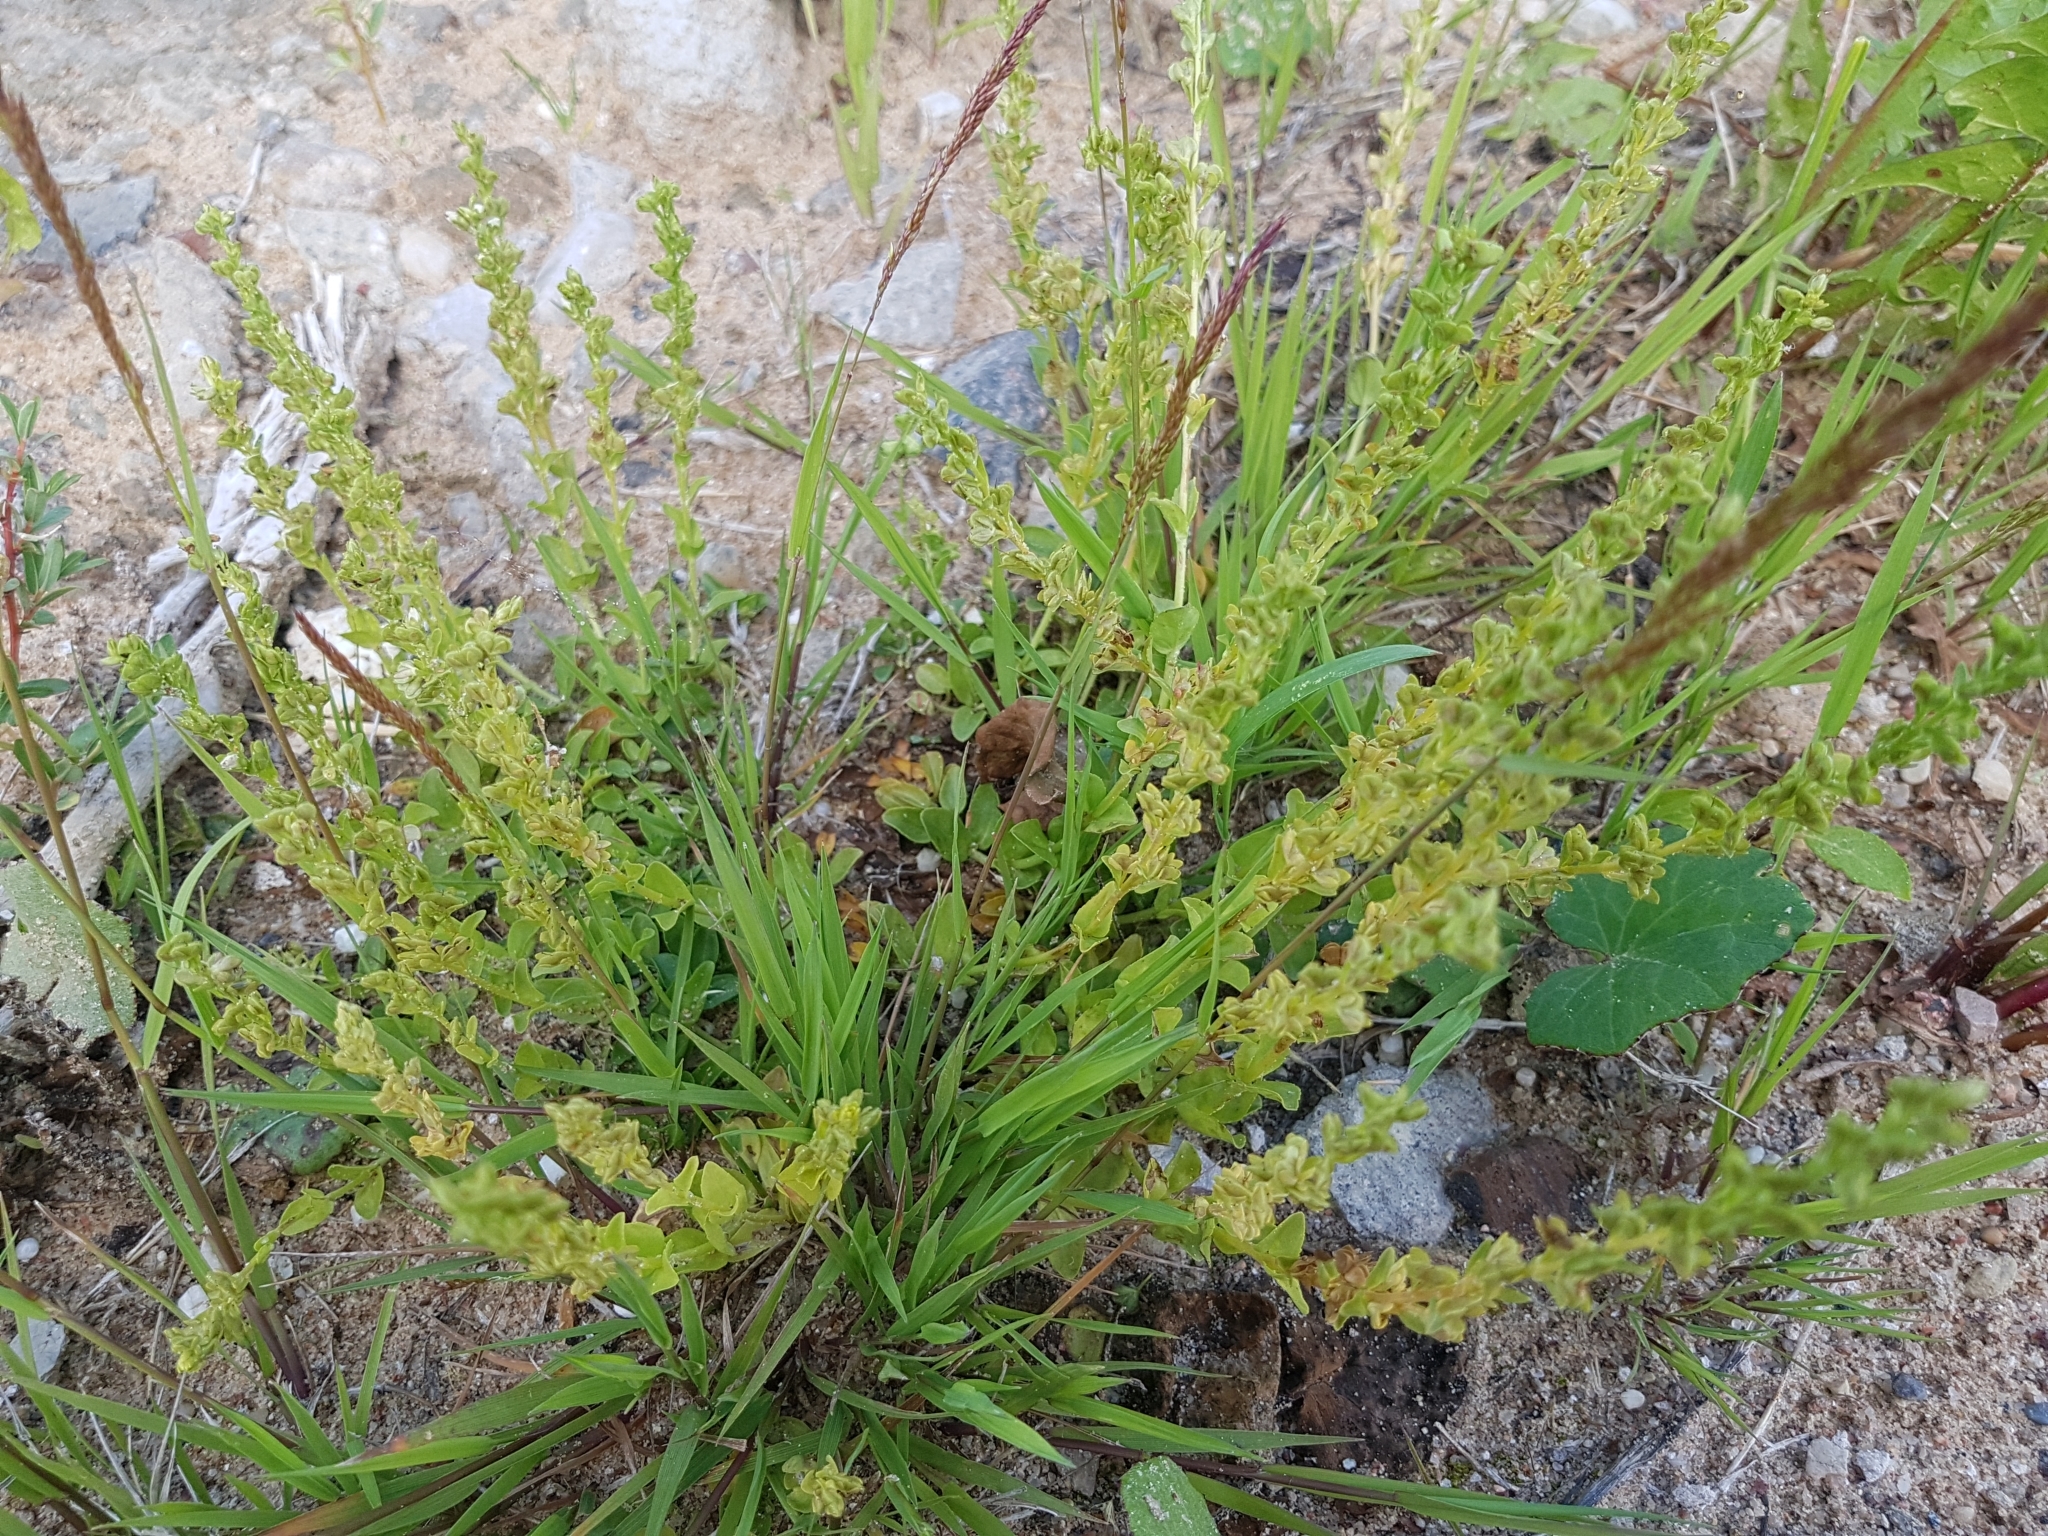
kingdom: Plantae
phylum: Tracheophyta
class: Magnoliopsida
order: Lamiales
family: Plantaginaceae
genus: Veronica
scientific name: Veronica serpyllifolia
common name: Thyme-leaved speedwell
